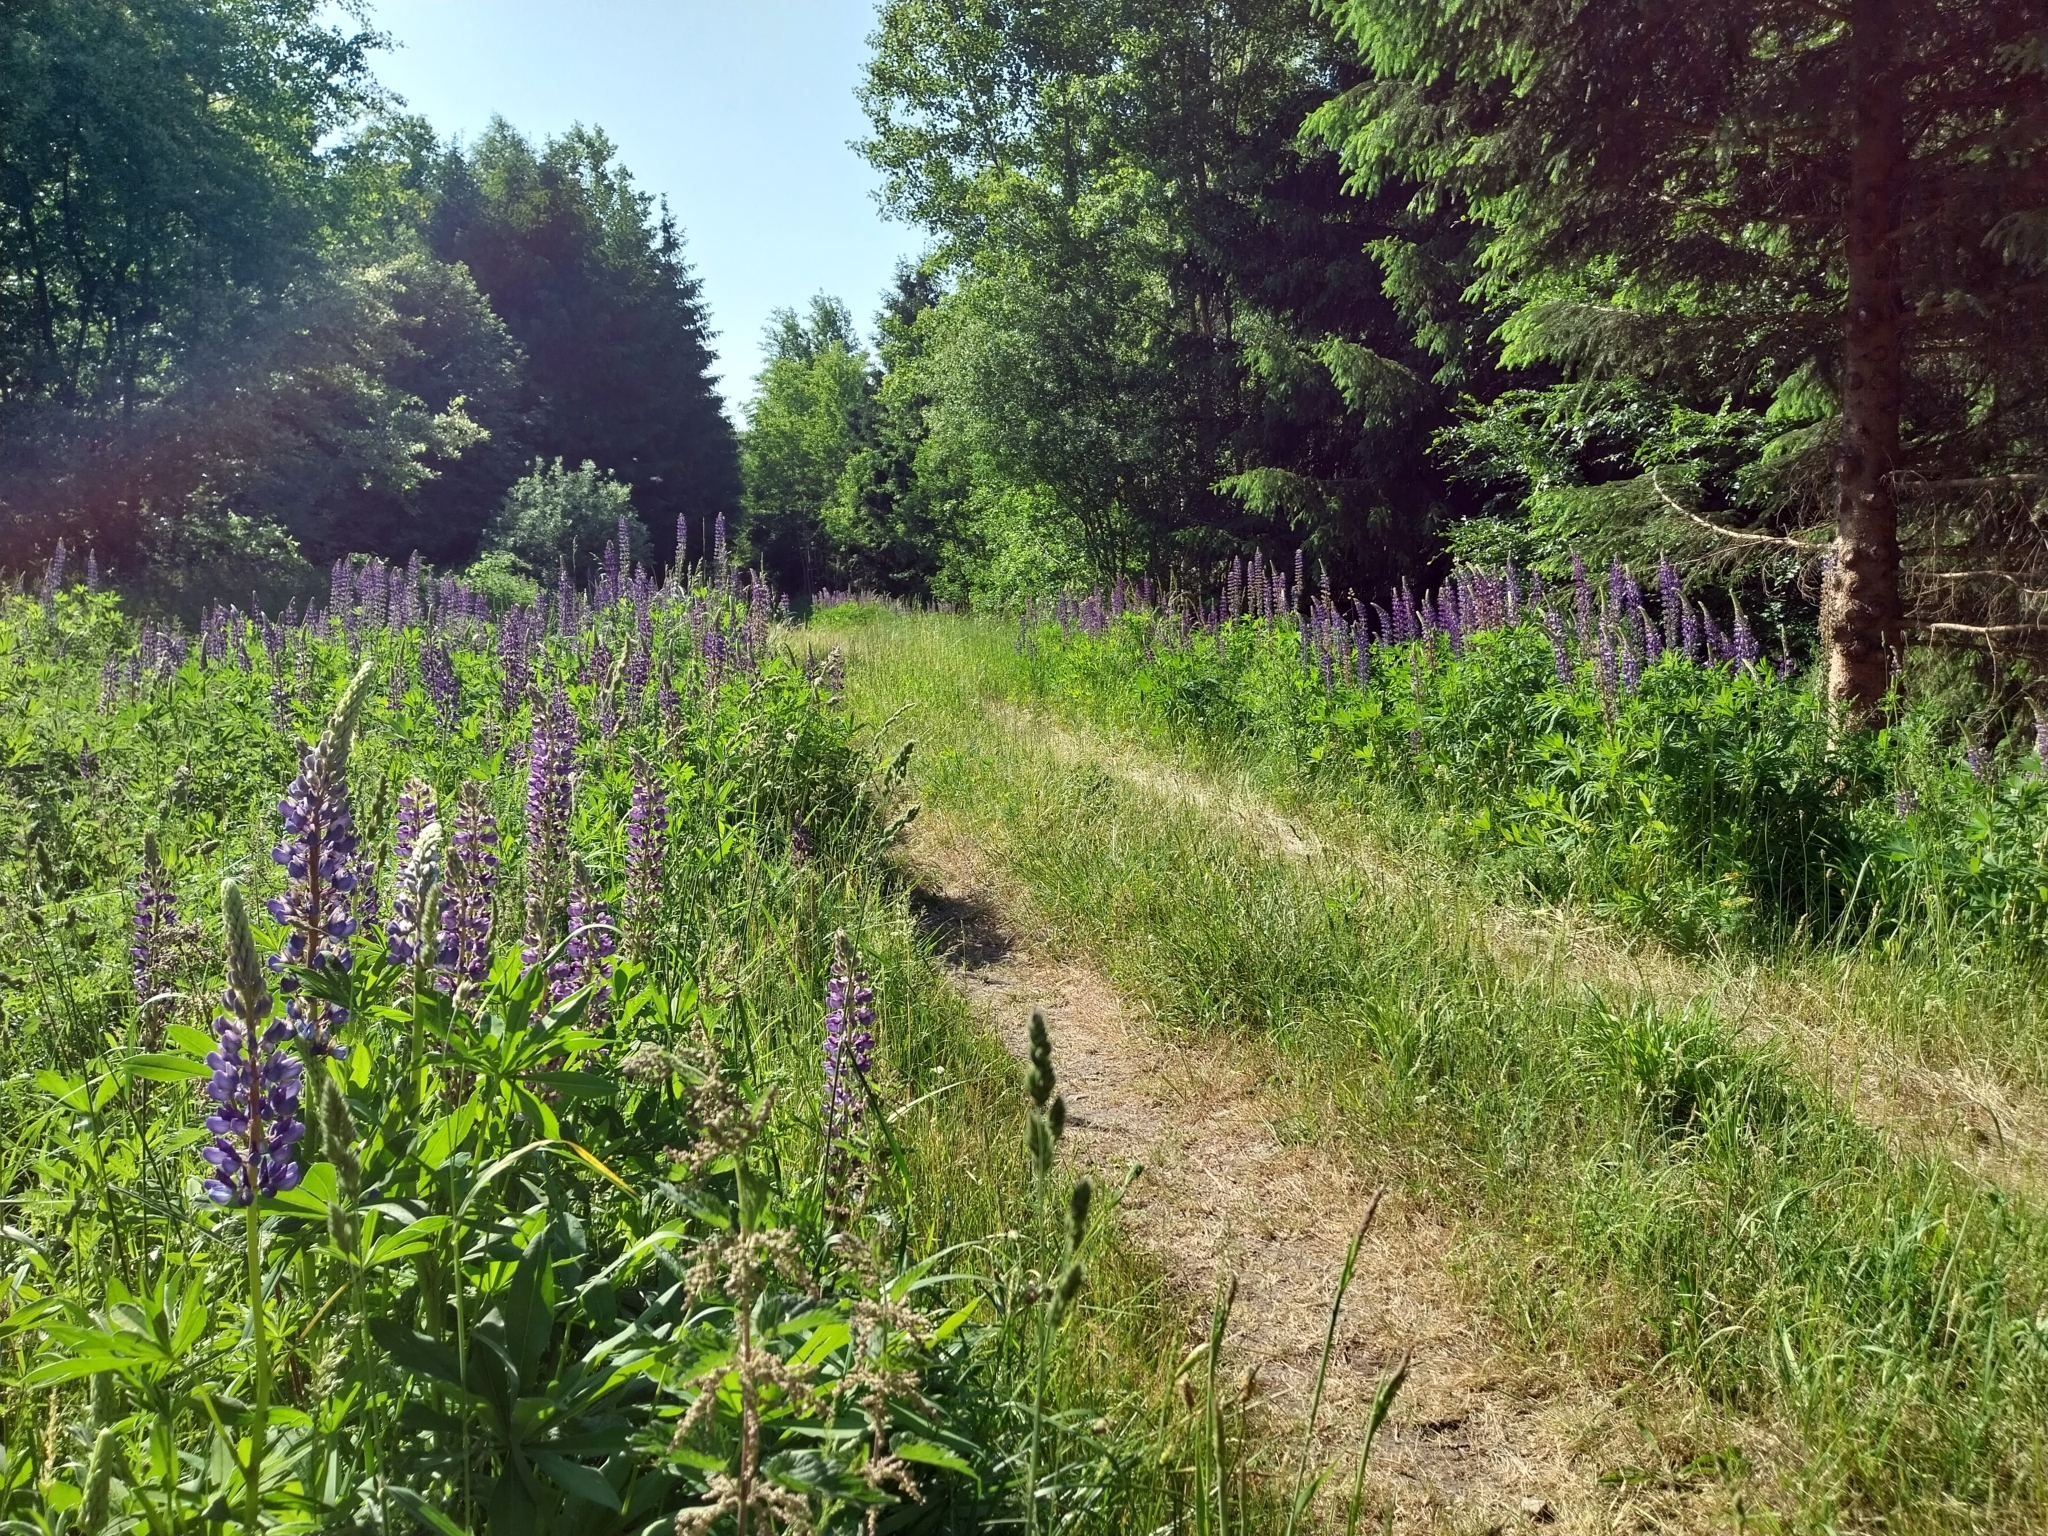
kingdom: Plantae
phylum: Tracheophyta
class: Magnoliopsida
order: Fabales
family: Fabaceae
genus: Lupinus
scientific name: Lupinus polyphyllus
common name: Garden lupin
